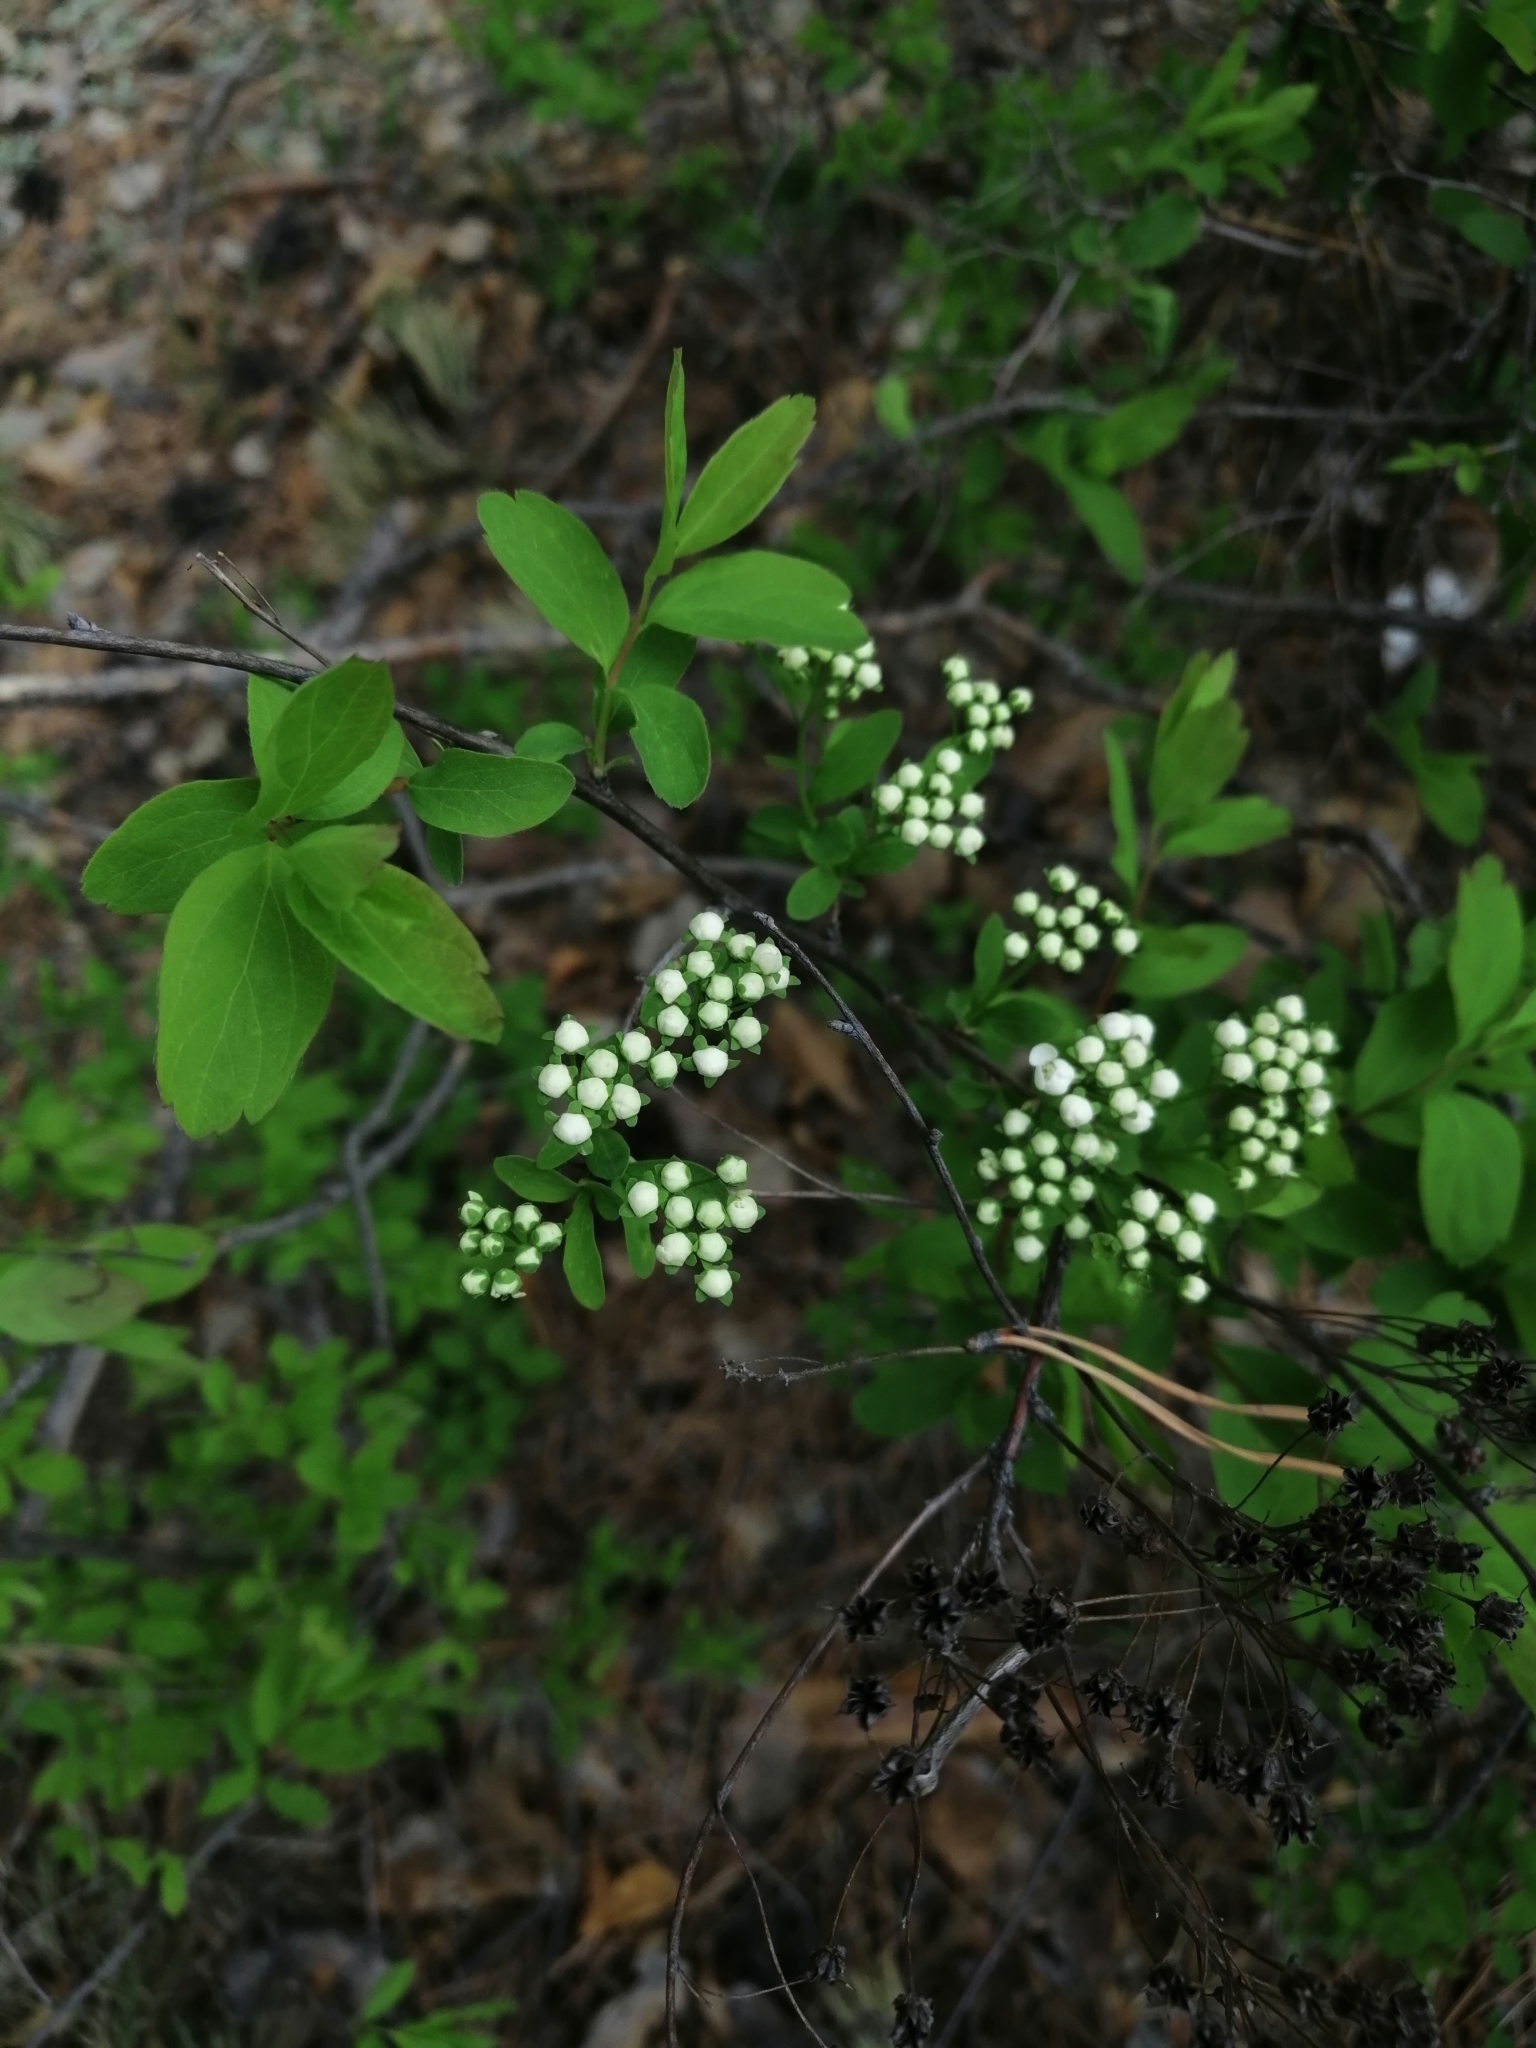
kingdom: Plantae
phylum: Tracheophyta
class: Magnoliopsida
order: Rosales
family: Rosaceae
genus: Spiraea
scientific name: Spiraea media
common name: Russian spiraea
